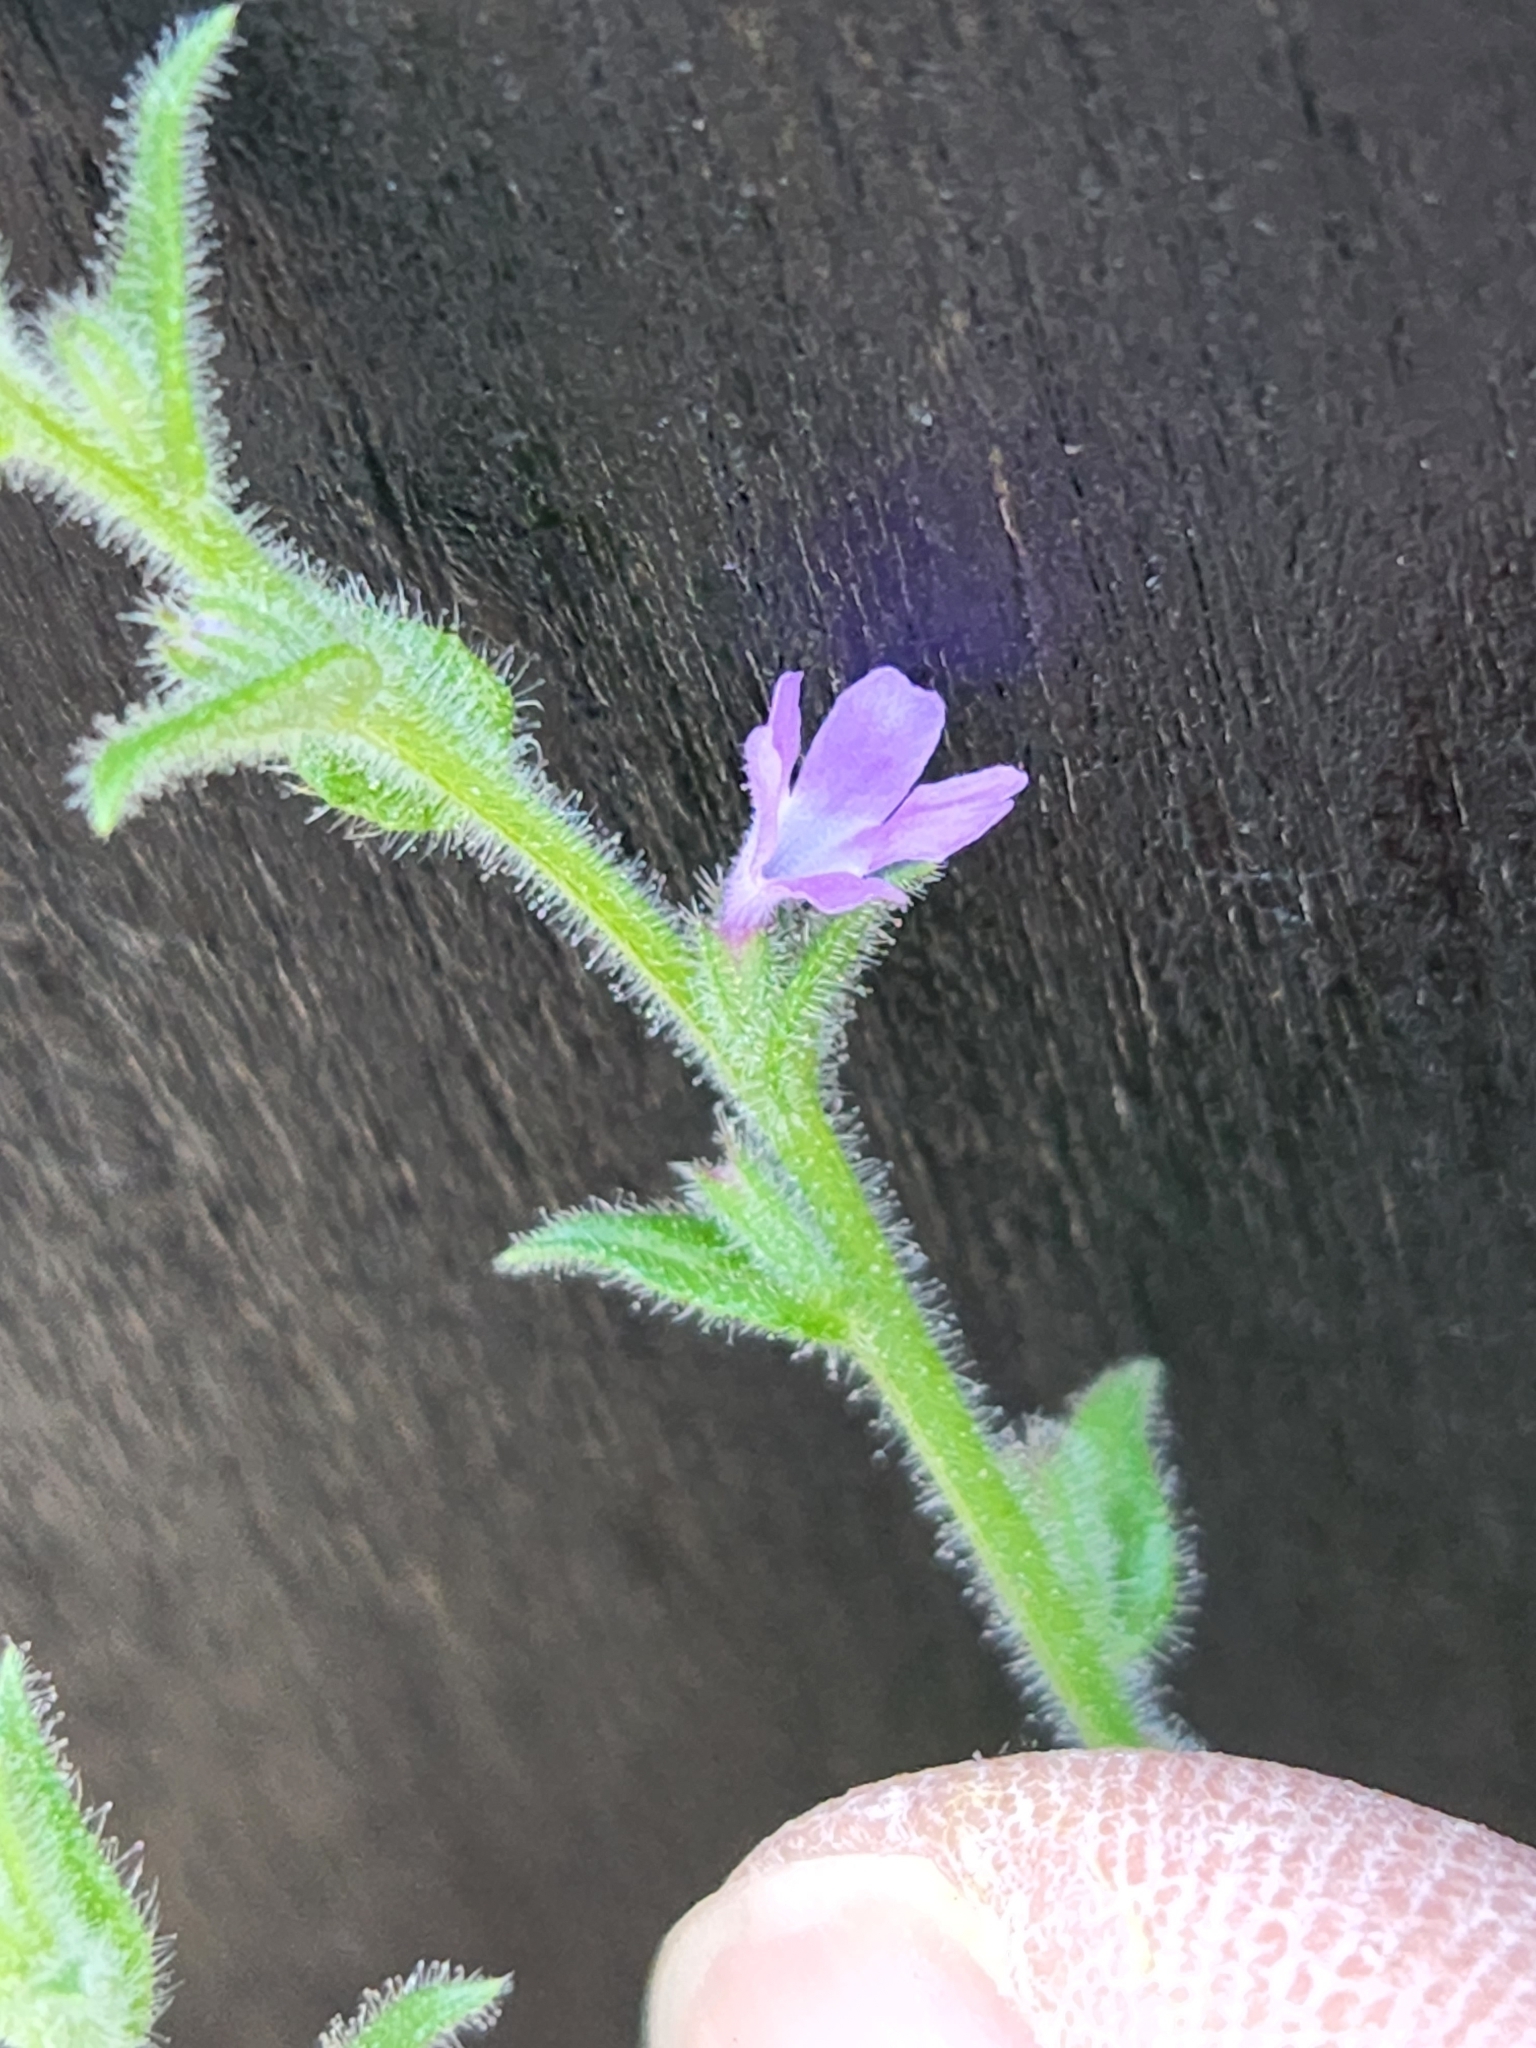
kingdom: Plantae
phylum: Tracheophyta
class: Magnoliopsida
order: Lamiales
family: Verbenaceae
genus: Verbena
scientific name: Verbena canescens
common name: Gray vervain
